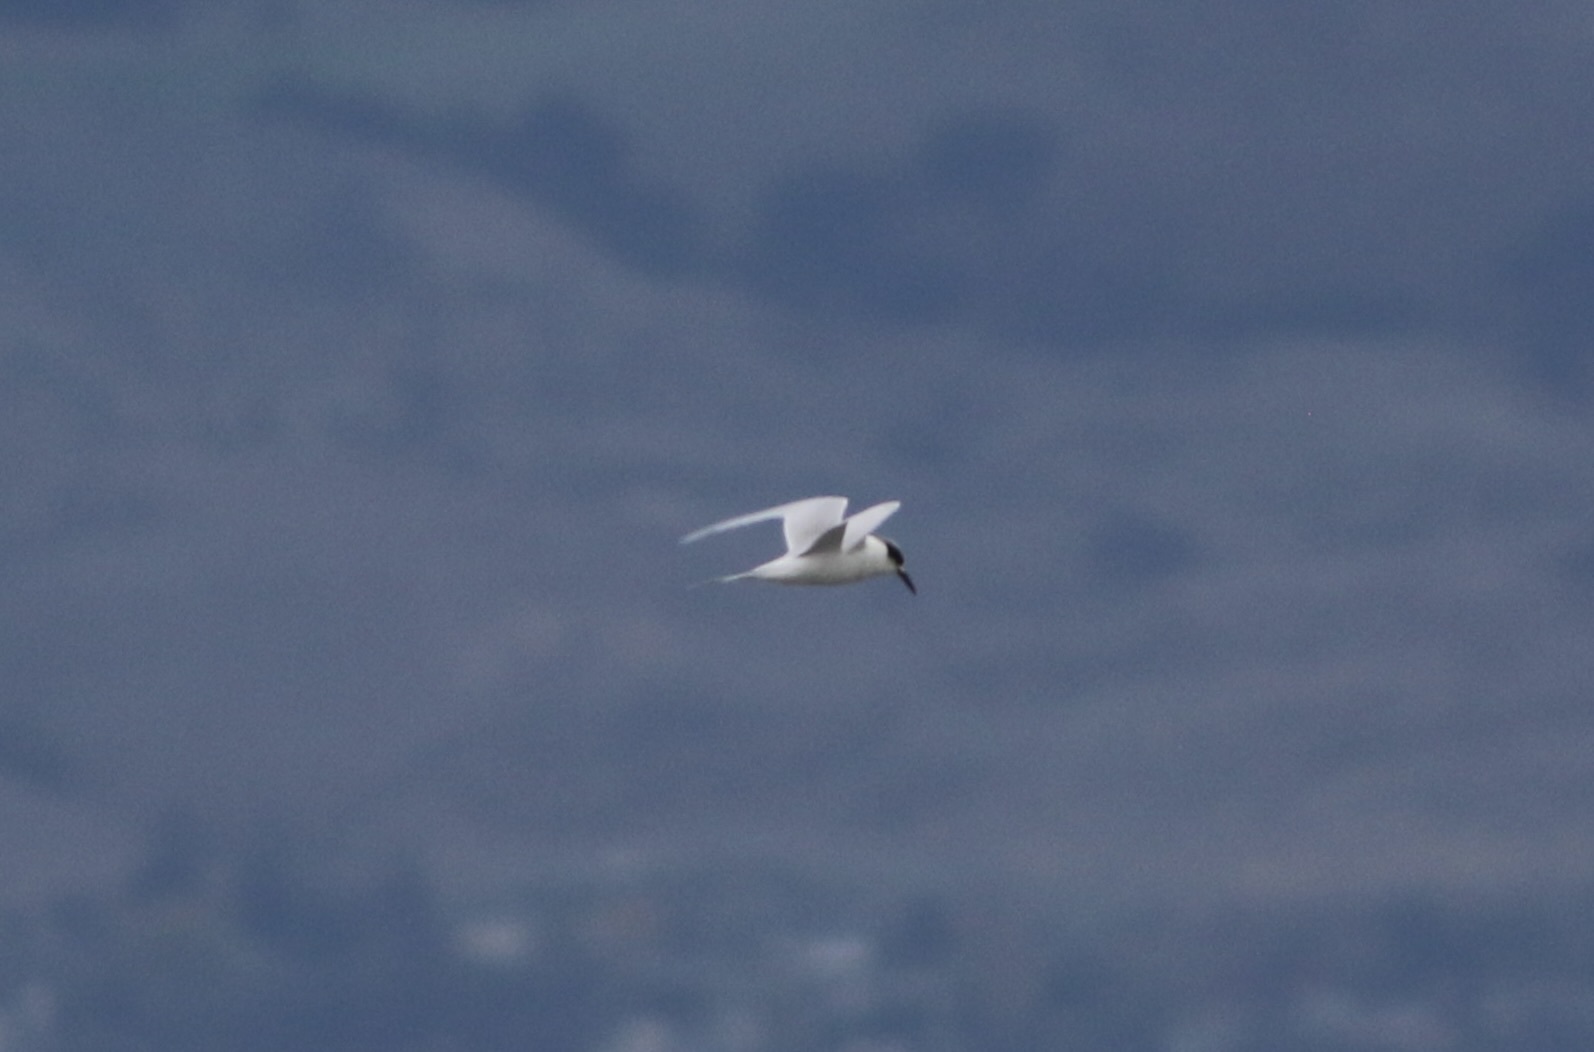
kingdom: Animalia
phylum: Chordata
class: Aves
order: Charadriiformes
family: Laridae
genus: Sterna
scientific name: Sterna forsteri
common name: Forster's tern
